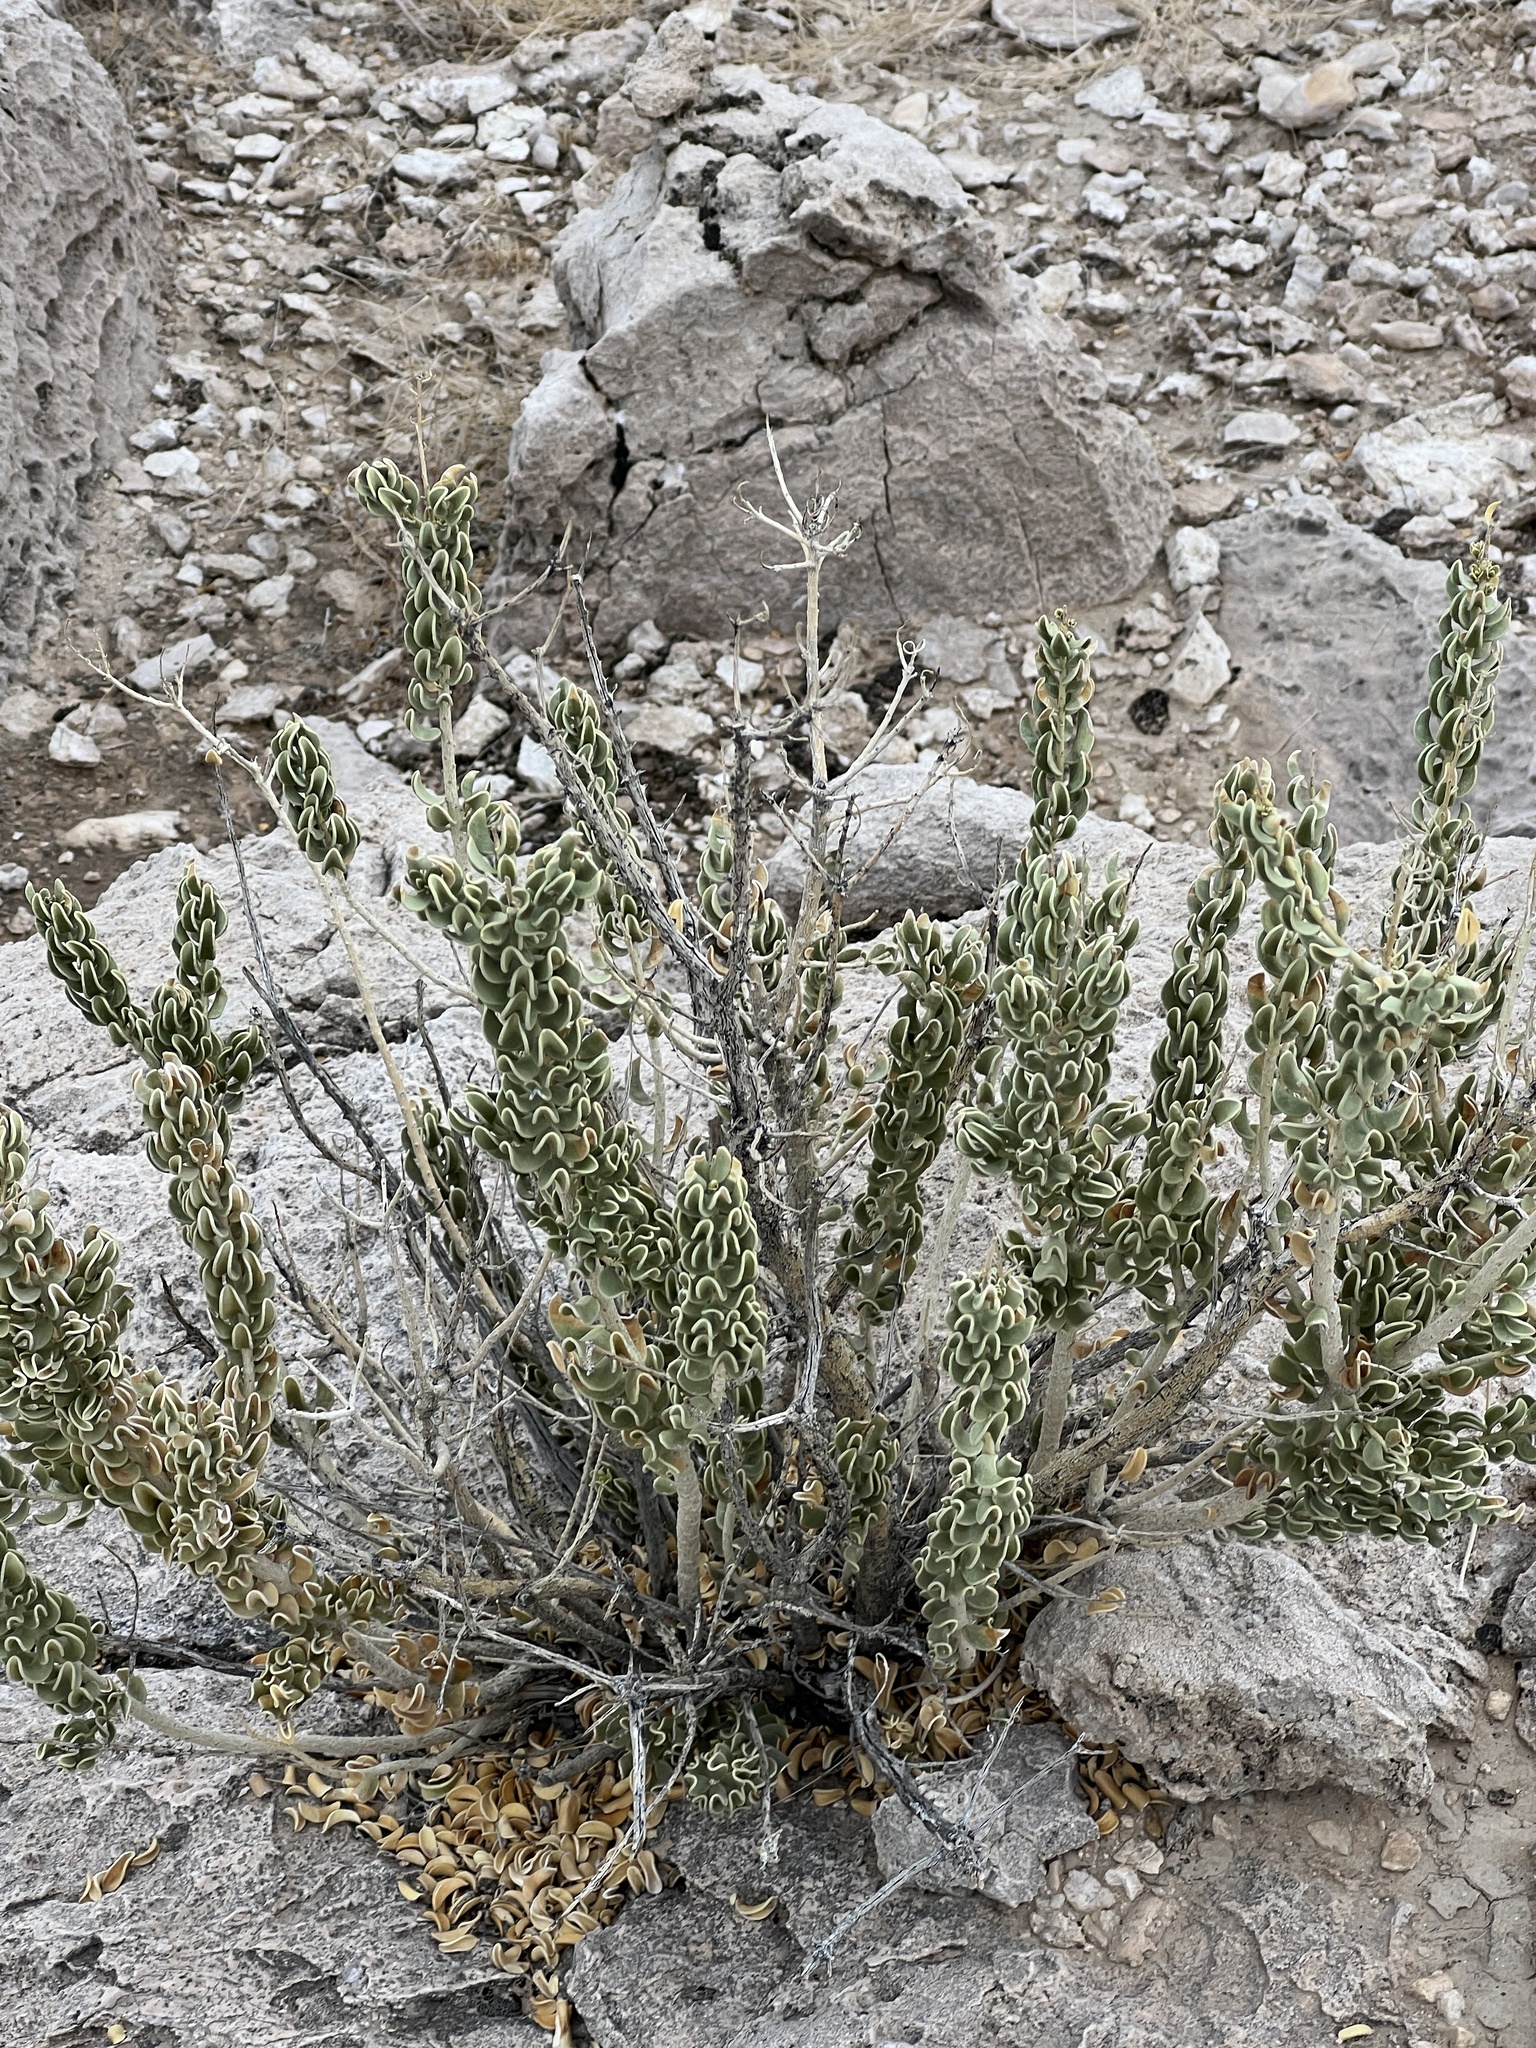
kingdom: Plantae
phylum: Tracheophyta
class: Magnoliopsida
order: Celastrales
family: Celastraceae
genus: Mortonia
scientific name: Mortonia utahensis
